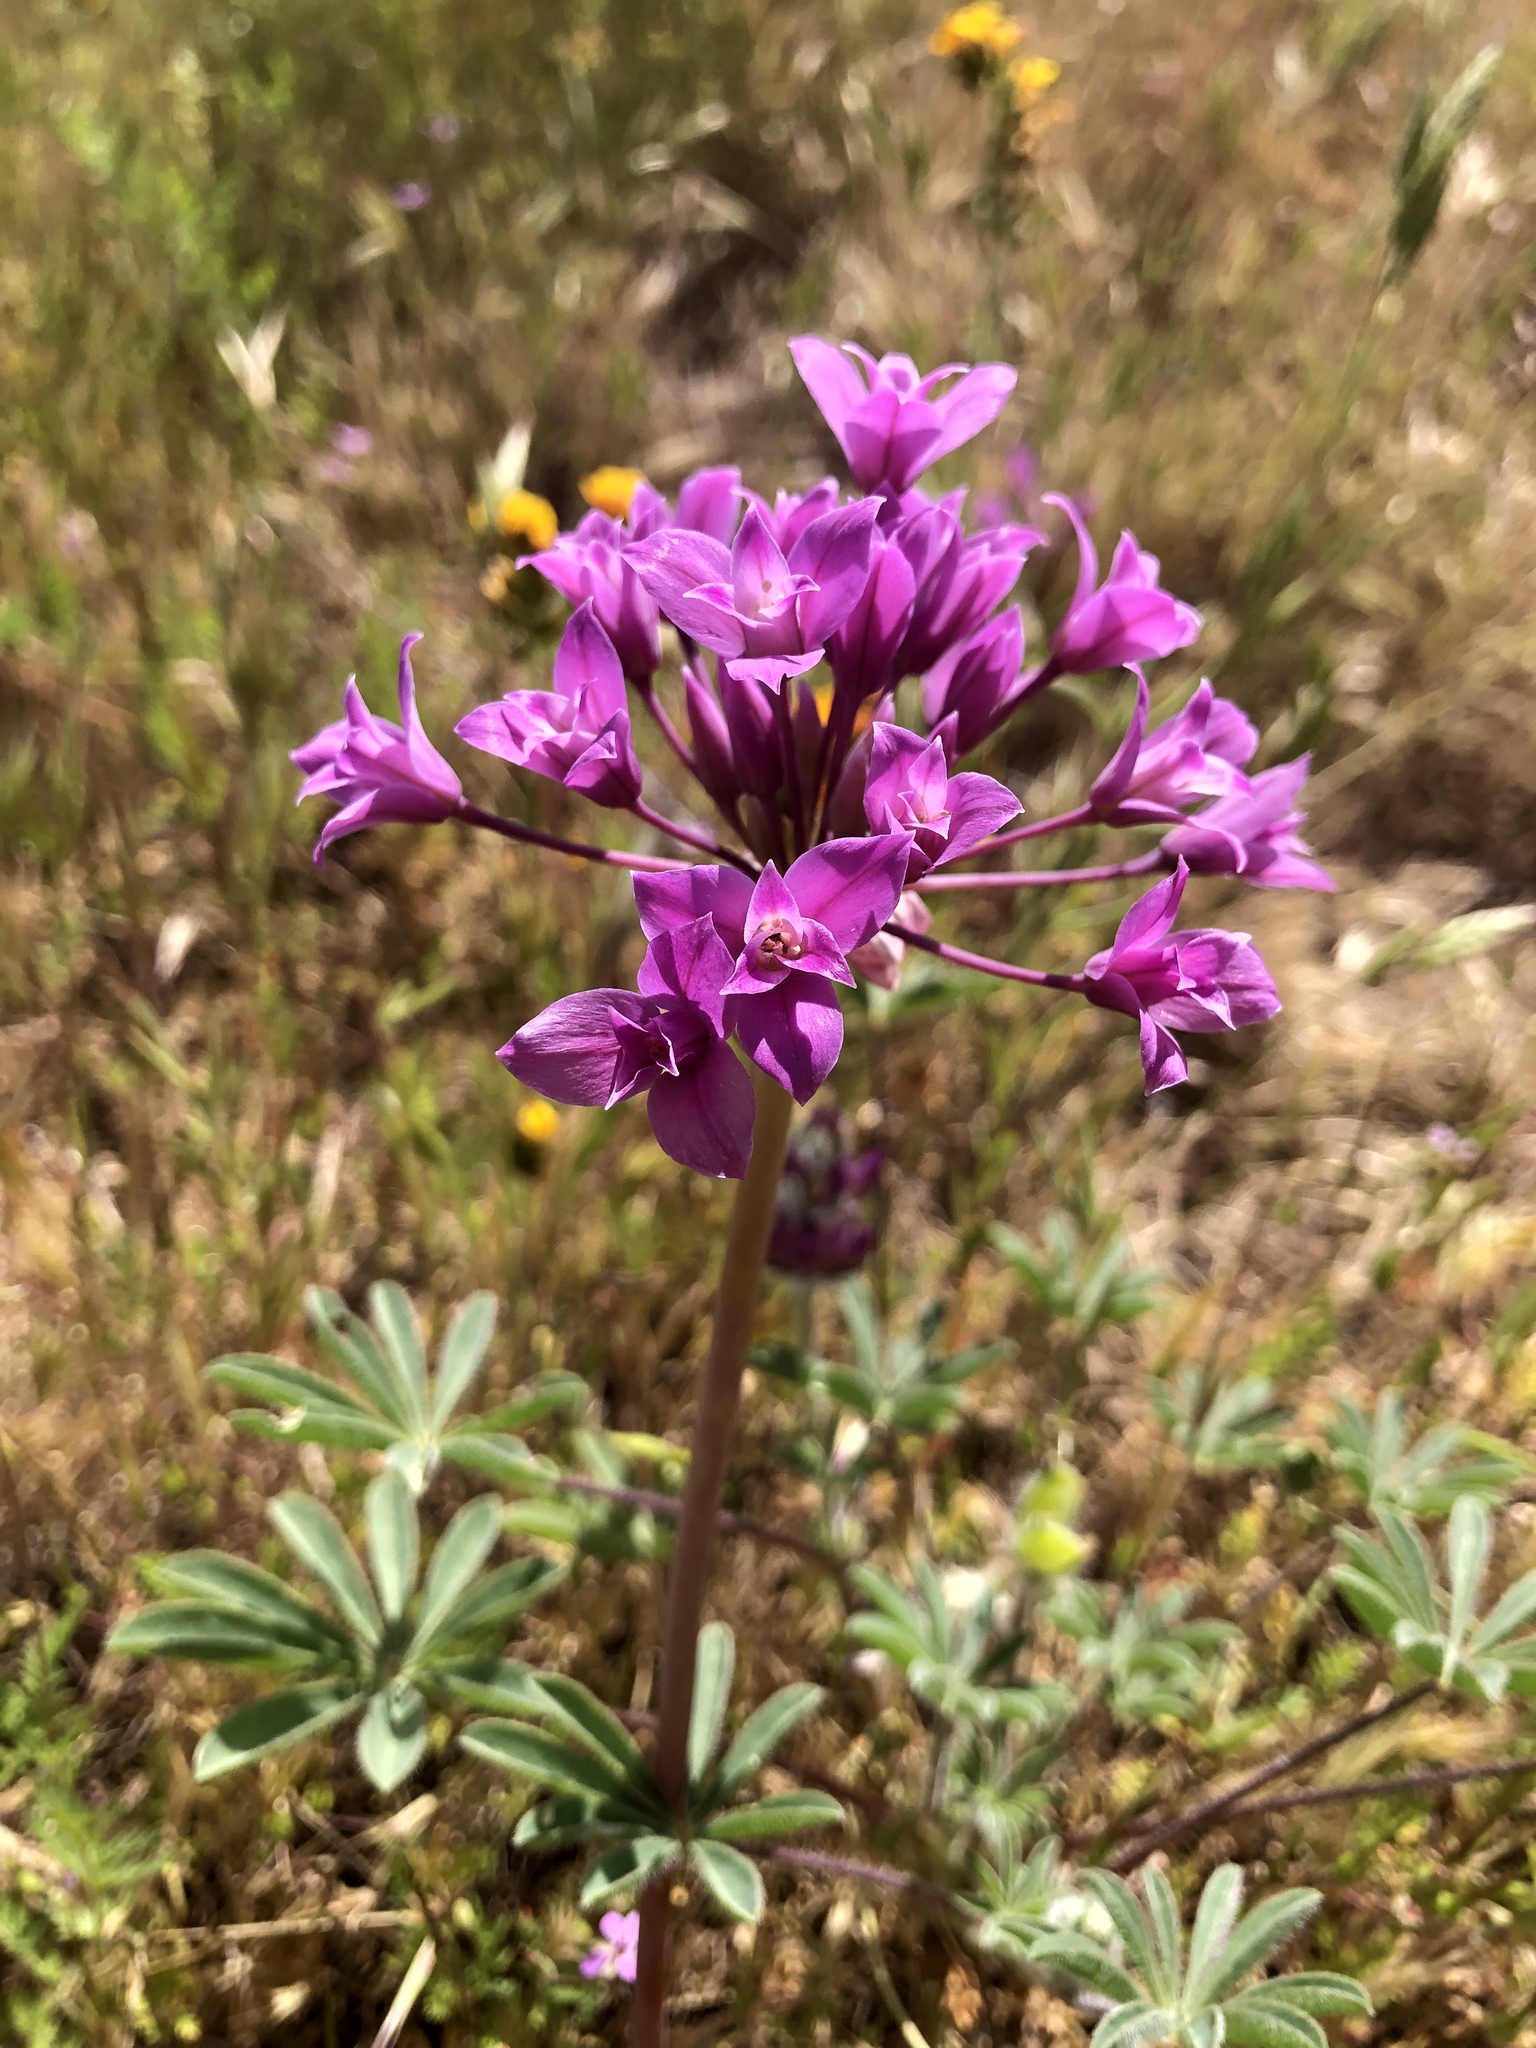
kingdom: Plantae
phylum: Tracheophyta
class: Liliopsida
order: Asparagales
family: Amaryllidaceae
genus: Allium
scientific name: Allium crispum
